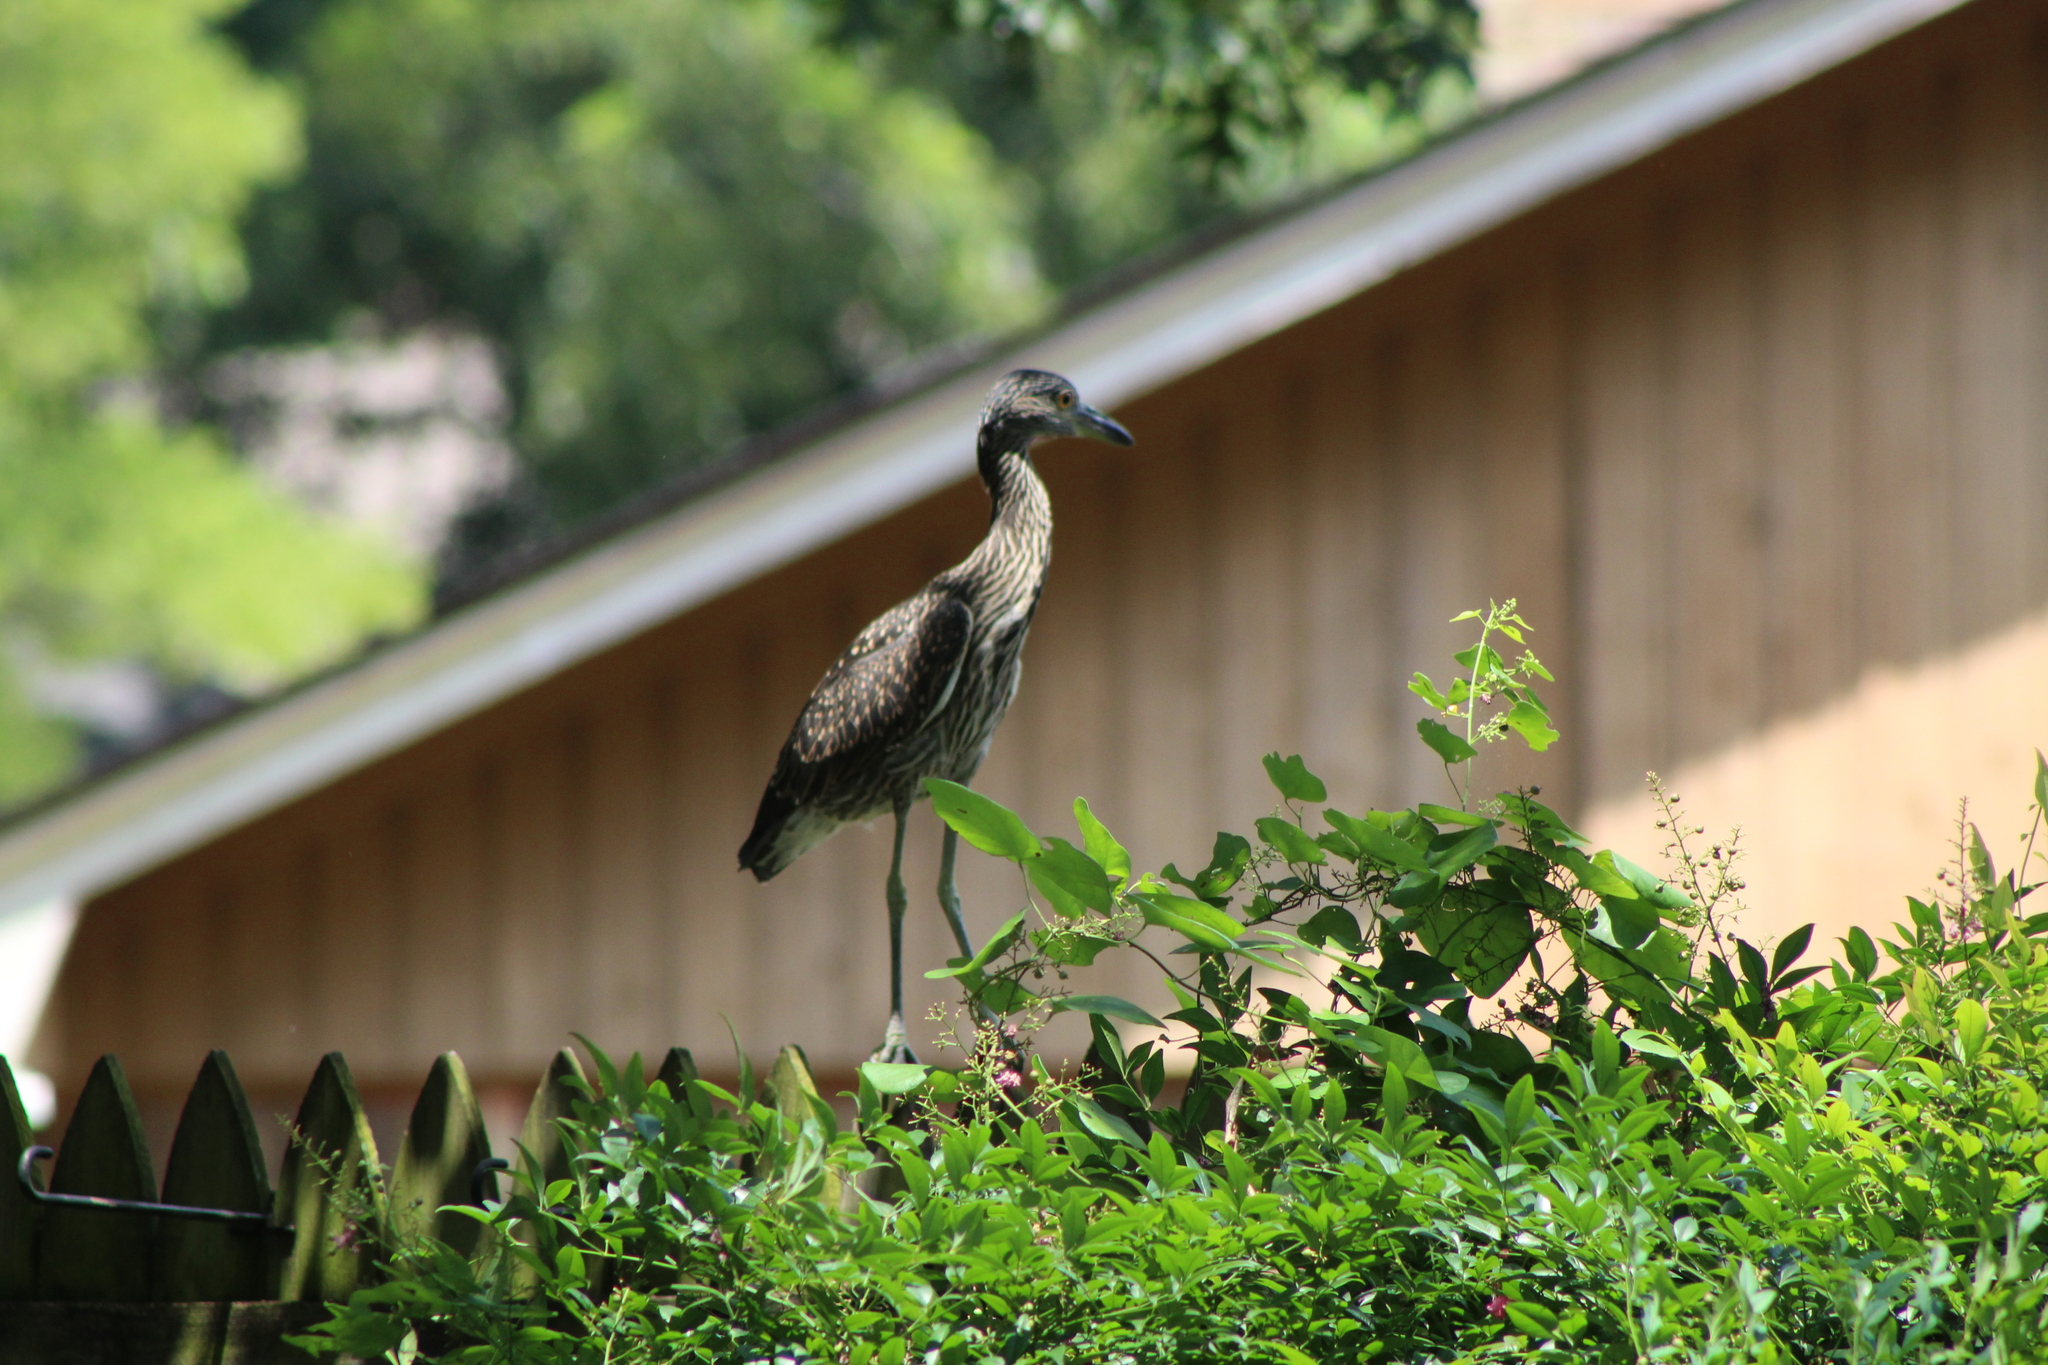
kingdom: Animalia
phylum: Chordata
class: Aves
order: Pelecaniformes
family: Ardeidae
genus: Nyctanassa
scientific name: Nyctanassa violacea
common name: Yellow-crowned night heron
